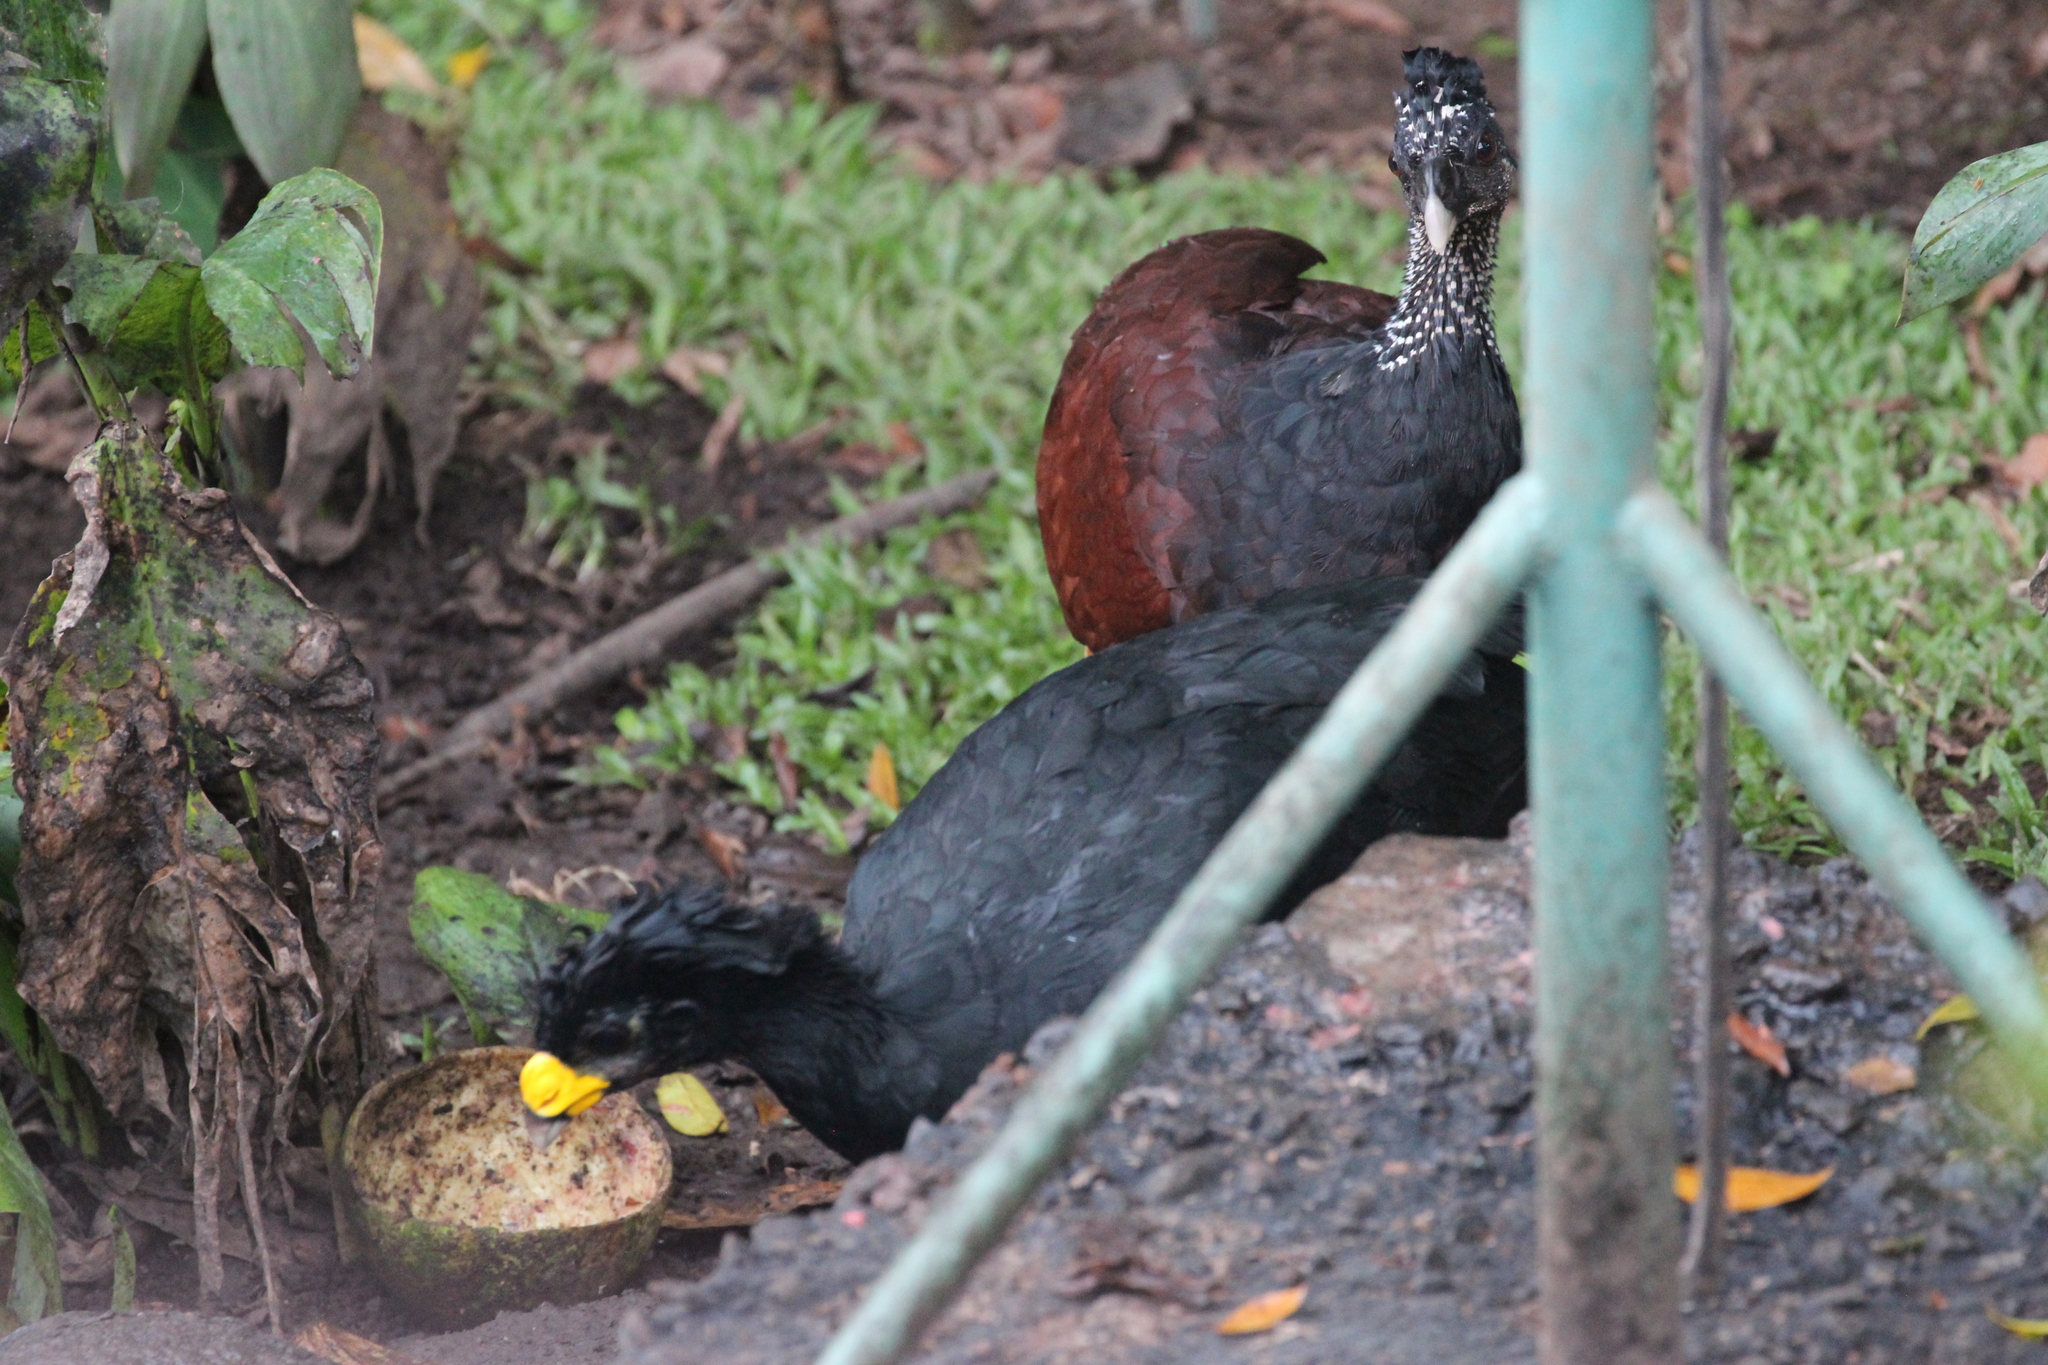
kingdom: Animalia
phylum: Chordata
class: Aves
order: Galliformes
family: Cracidae
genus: Crax
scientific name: Crax rubra
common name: Great curassow
